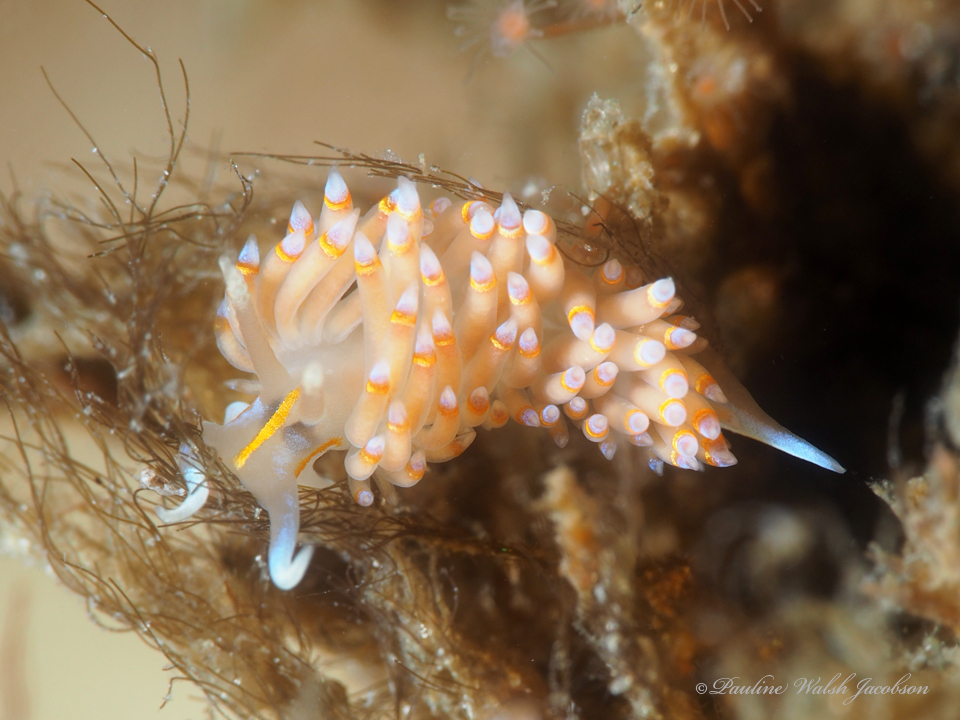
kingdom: Animalia
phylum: Mollusca
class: Gastropoda
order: Nudibranchia
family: Myrrhinidae
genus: Dondice
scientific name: Dondice jupiteriensis
